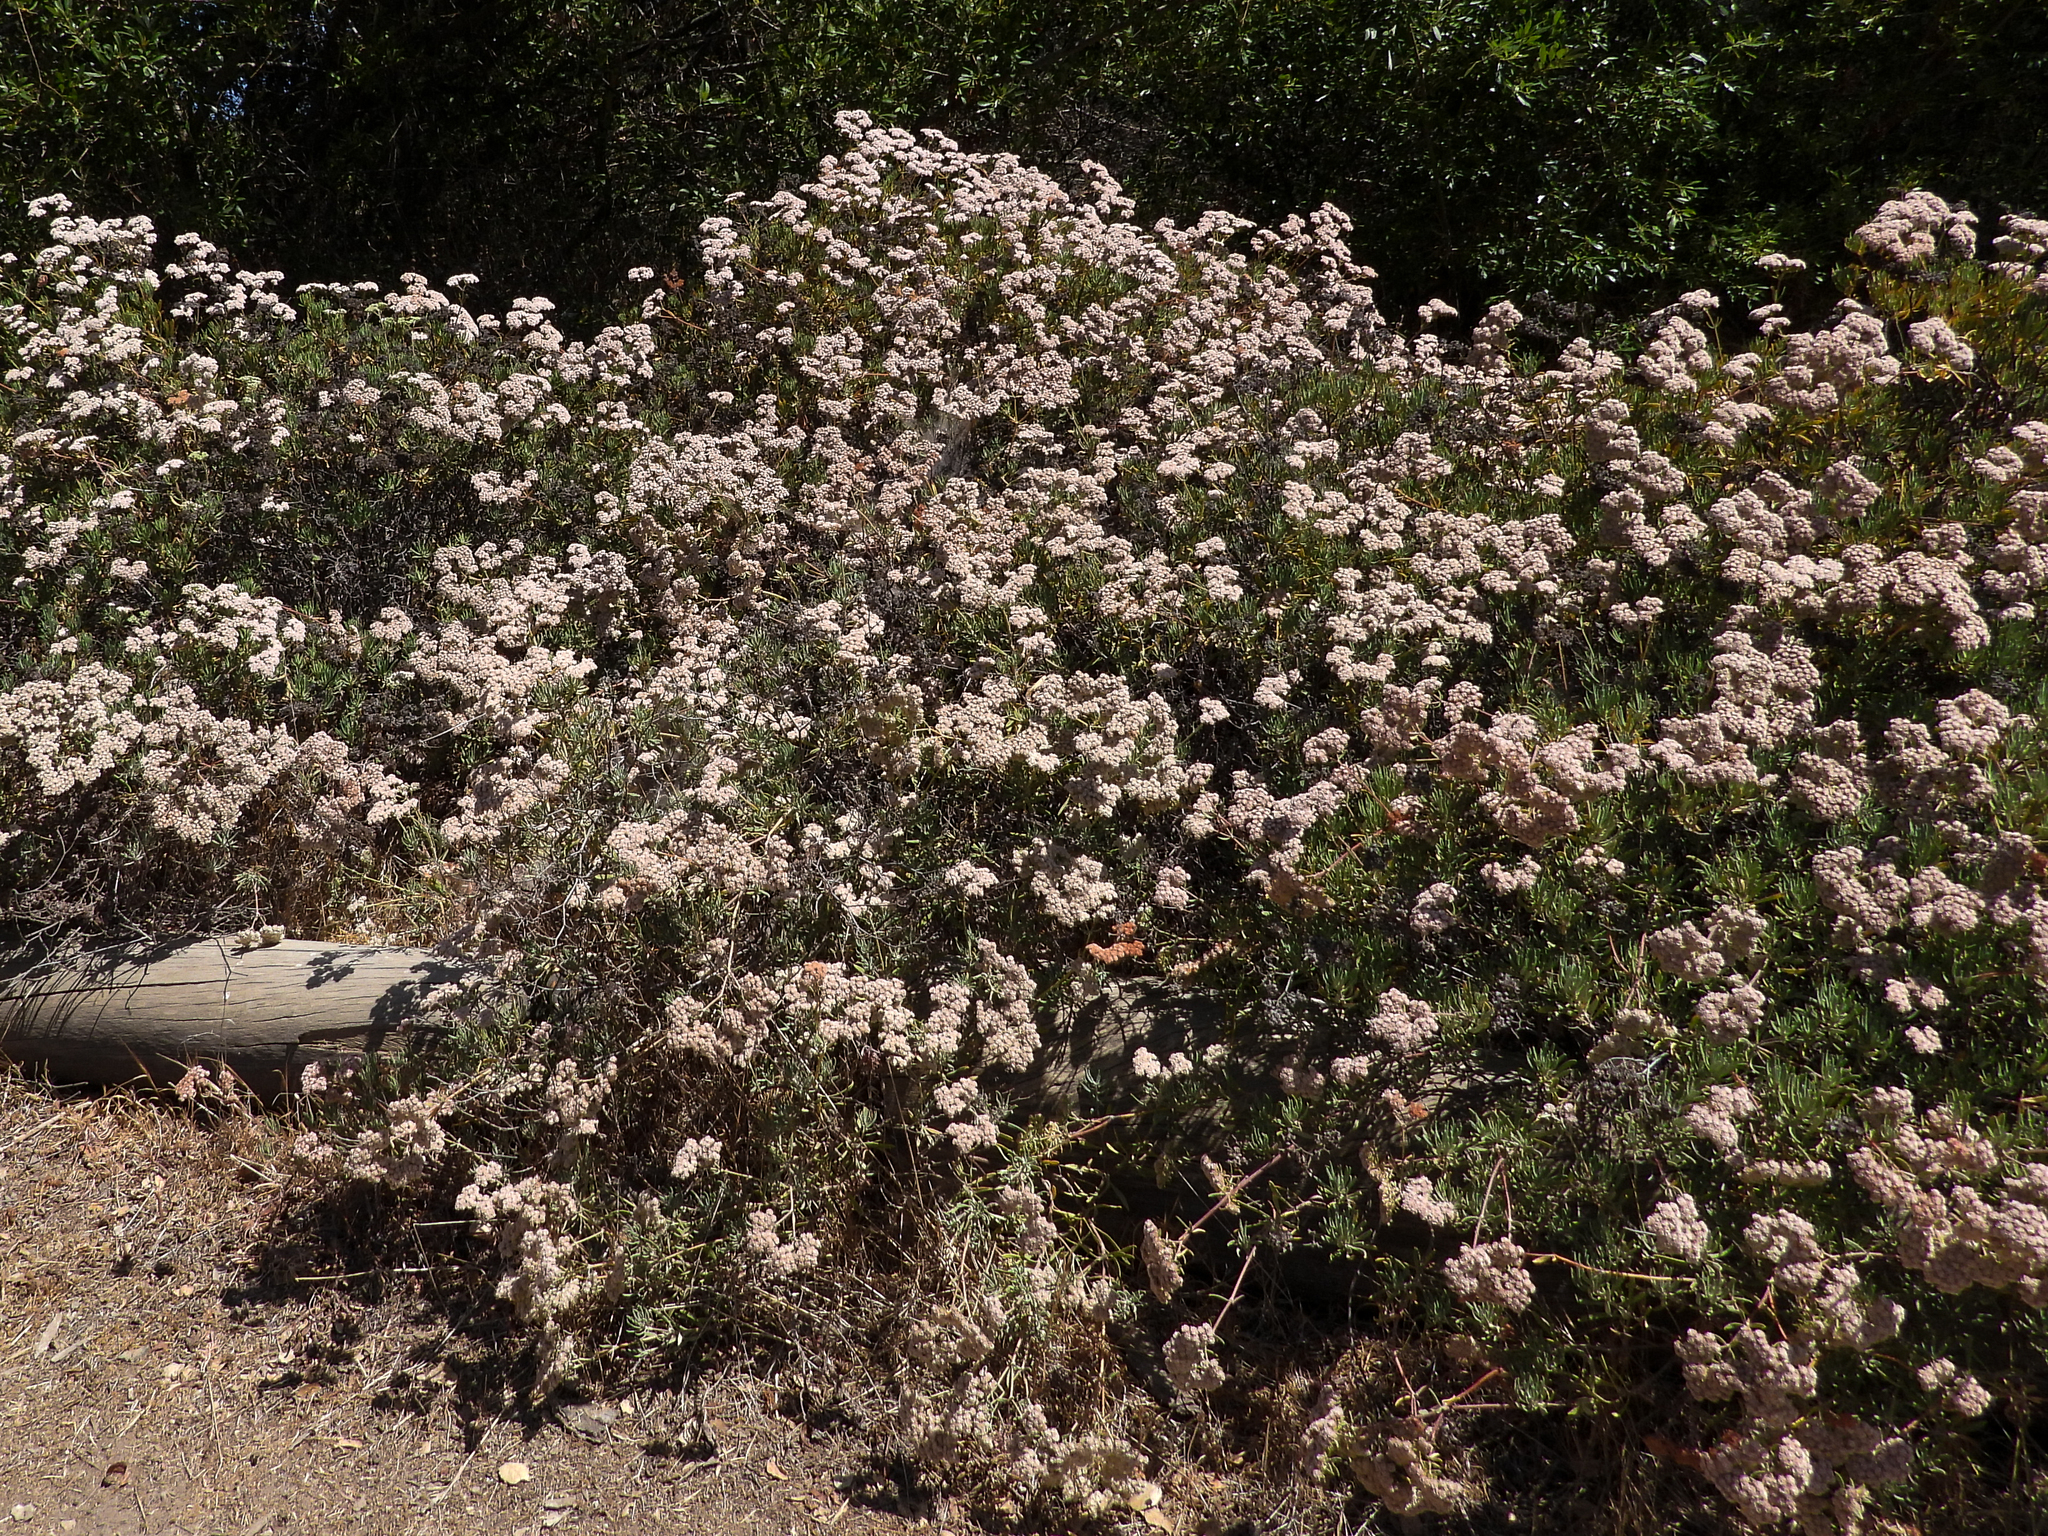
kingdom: Plantae
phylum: Tracheophyta
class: Magnoliopsida
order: Caryophyllales
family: Polygonaceae
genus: Eriogonum
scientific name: Eriogonum arborescens
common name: Island buckwheat
